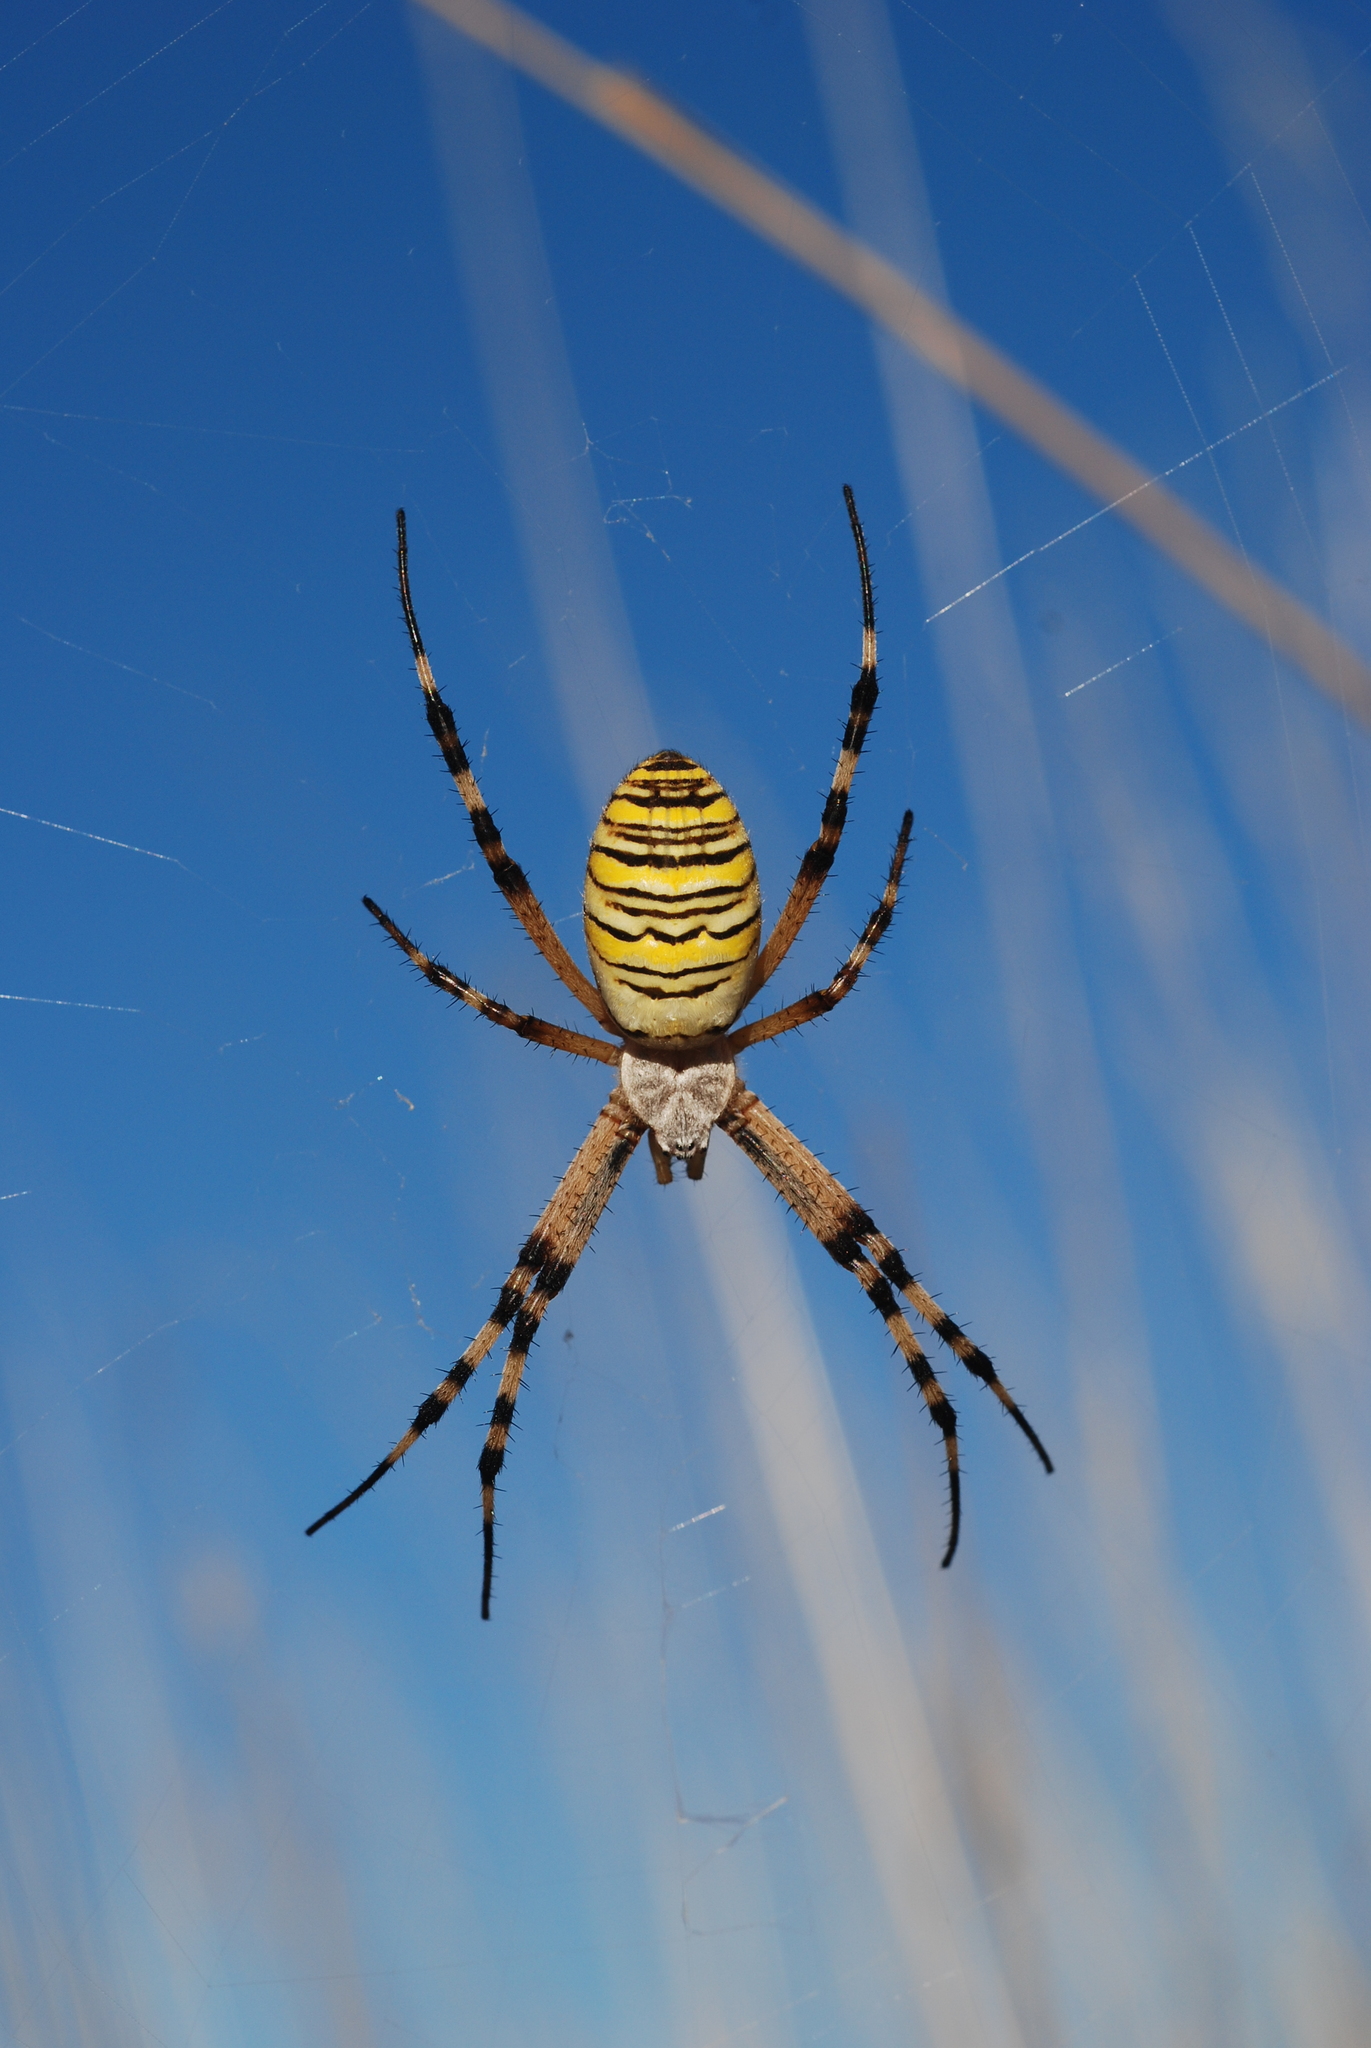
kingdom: Animalia
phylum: Arthropoda
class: Arachnida
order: Araneae
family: Araneidae
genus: Argiope
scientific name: Argiope bruennichi
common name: Wasp spider
